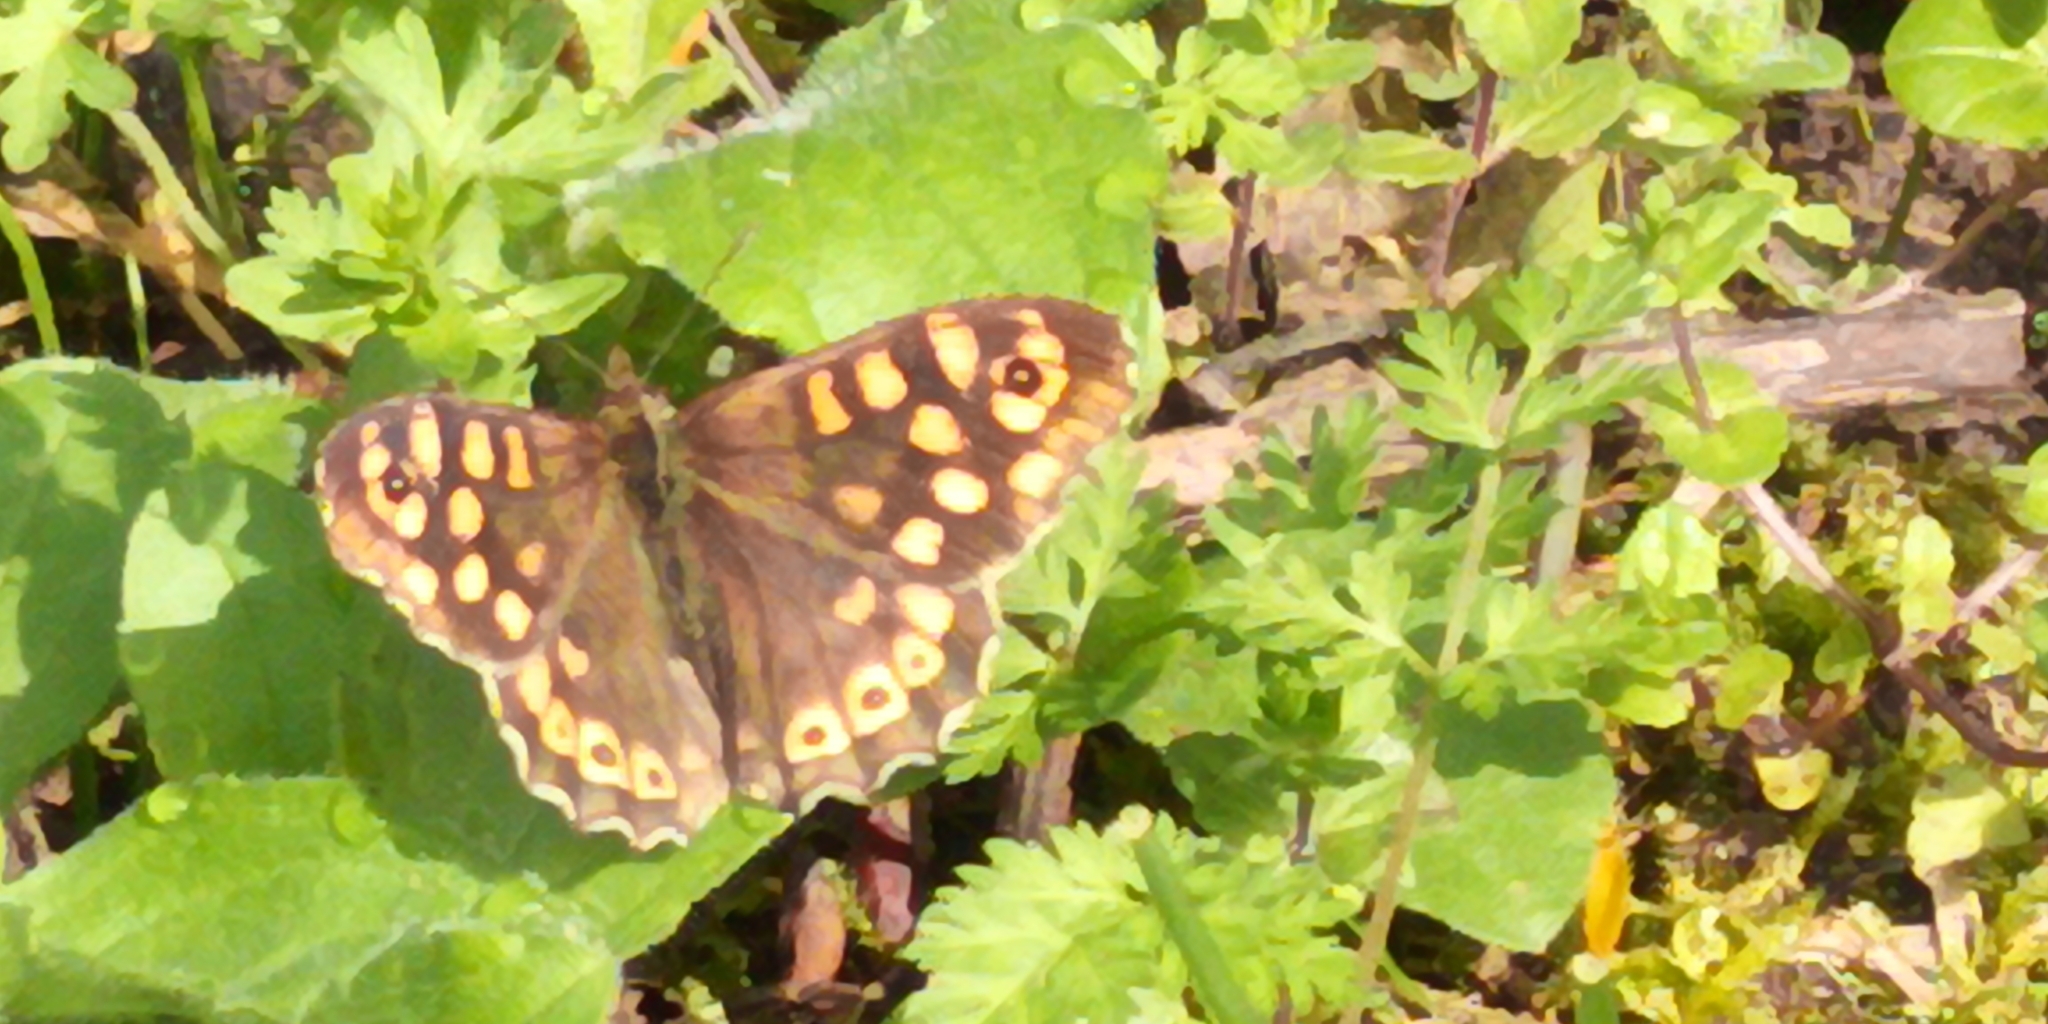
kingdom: Animalia
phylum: Arthropoda
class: Insecta
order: Lepidoptera
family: Nymphalidae
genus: Pararge
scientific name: Pararge aegeria
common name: Speckled wood
